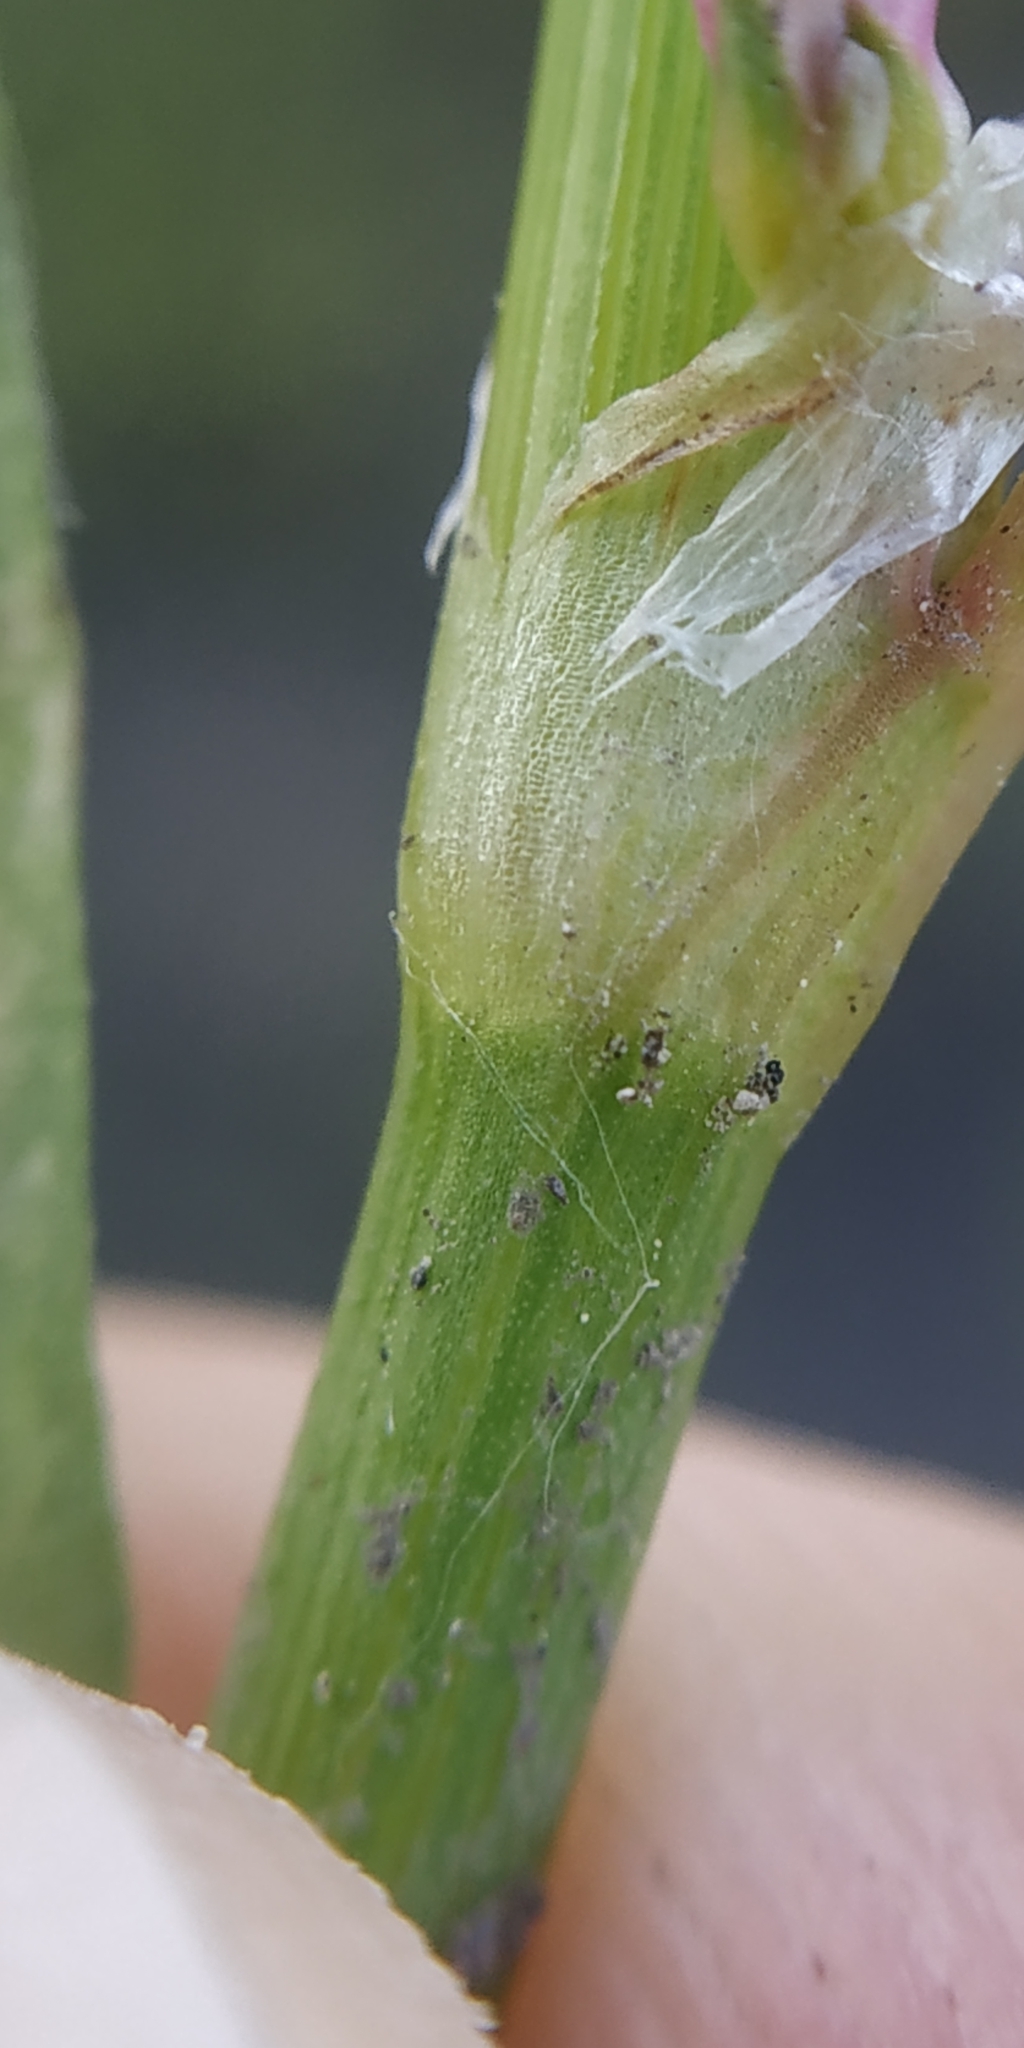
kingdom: Plantae
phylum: Tracheophyta
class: Magnoliopsida
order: Caryophyllales
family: Polygonaceae
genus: Polygonum
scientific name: Polygonum aviculare
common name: Prostrate knotweed
